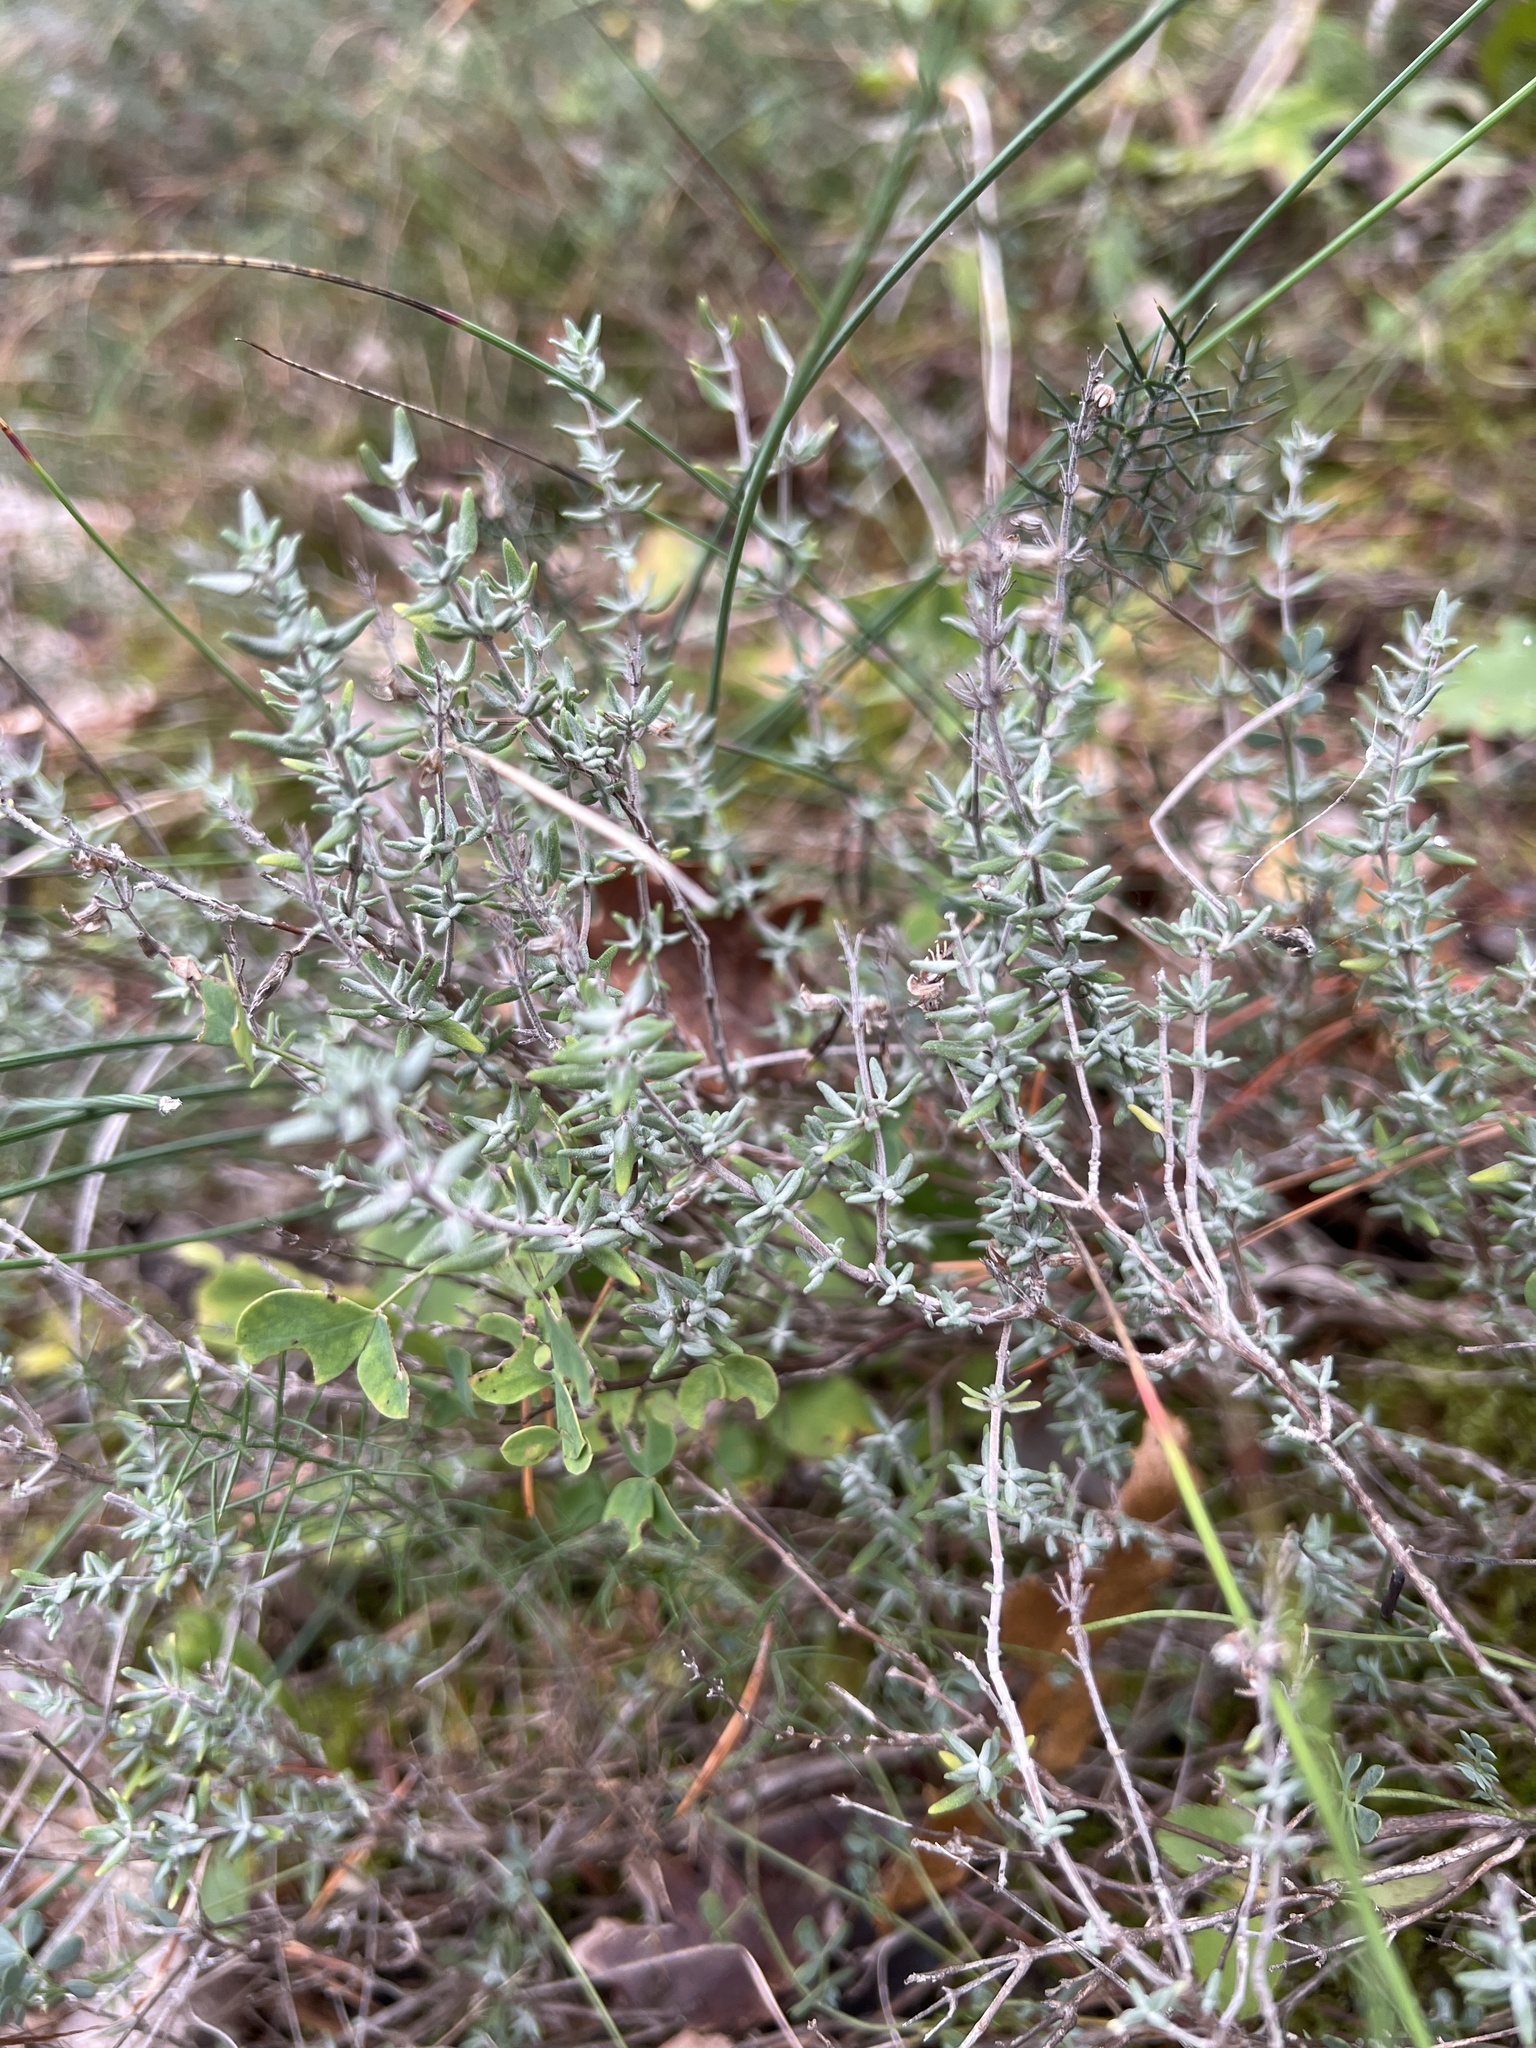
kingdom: Plantae
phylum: Tracheophyta
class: Magnoliopsida
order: Lamiales
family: Lamiaceae
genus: Thymus
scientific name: Thymus vulgaris
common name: Garden thyme
